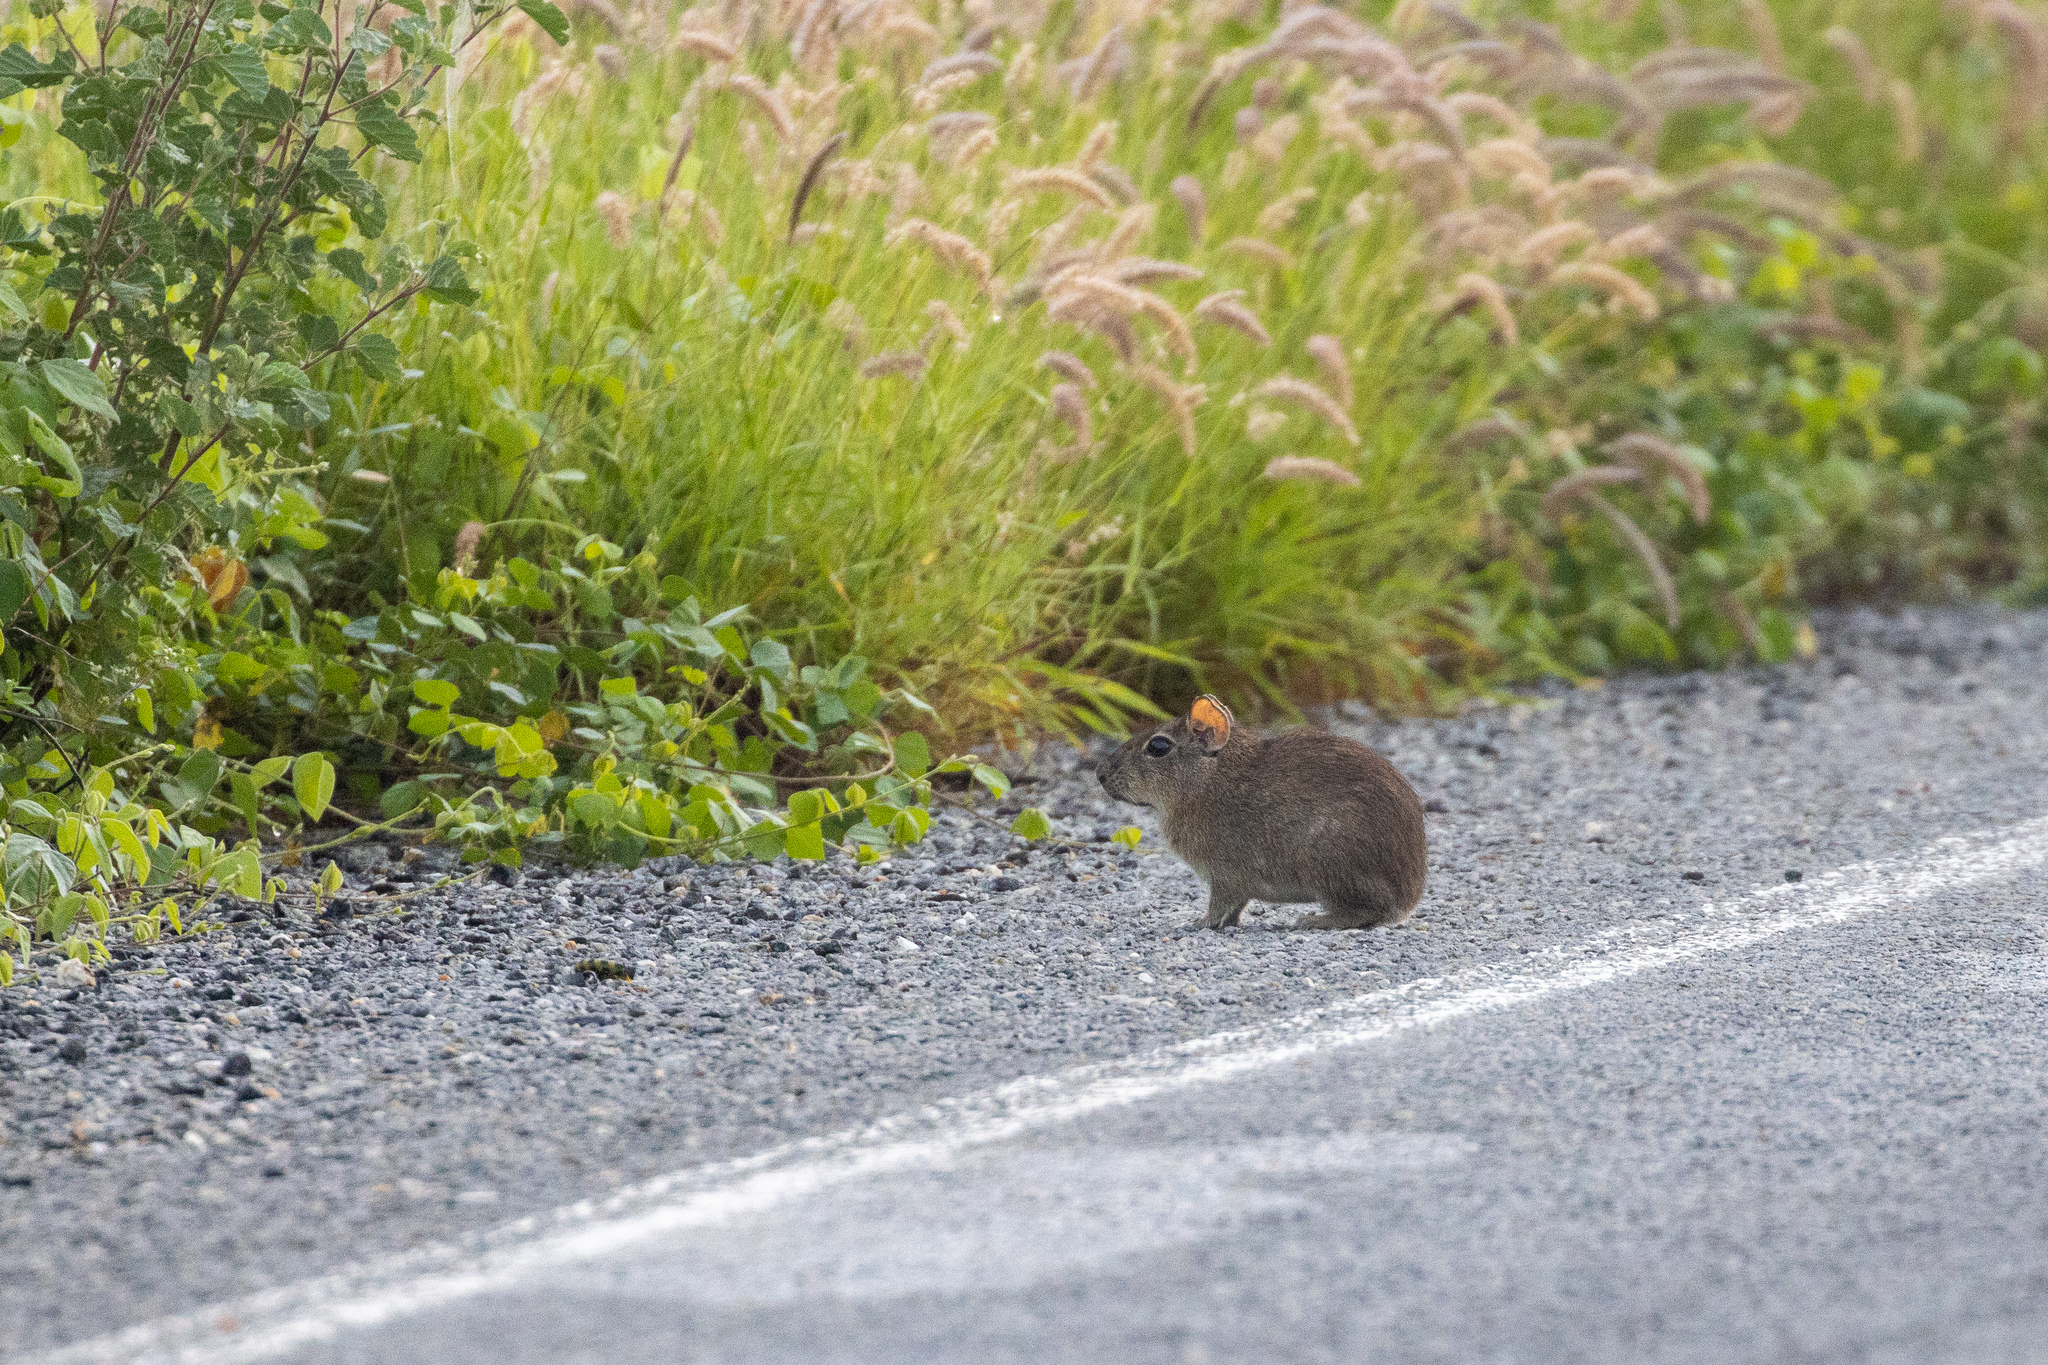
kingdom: Animalia
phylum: Chordata
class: Mammalia
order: Rodentia
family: Caviidae
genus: Galea
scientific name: Galea spixii
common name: Spix's yellow-toothed cavy
